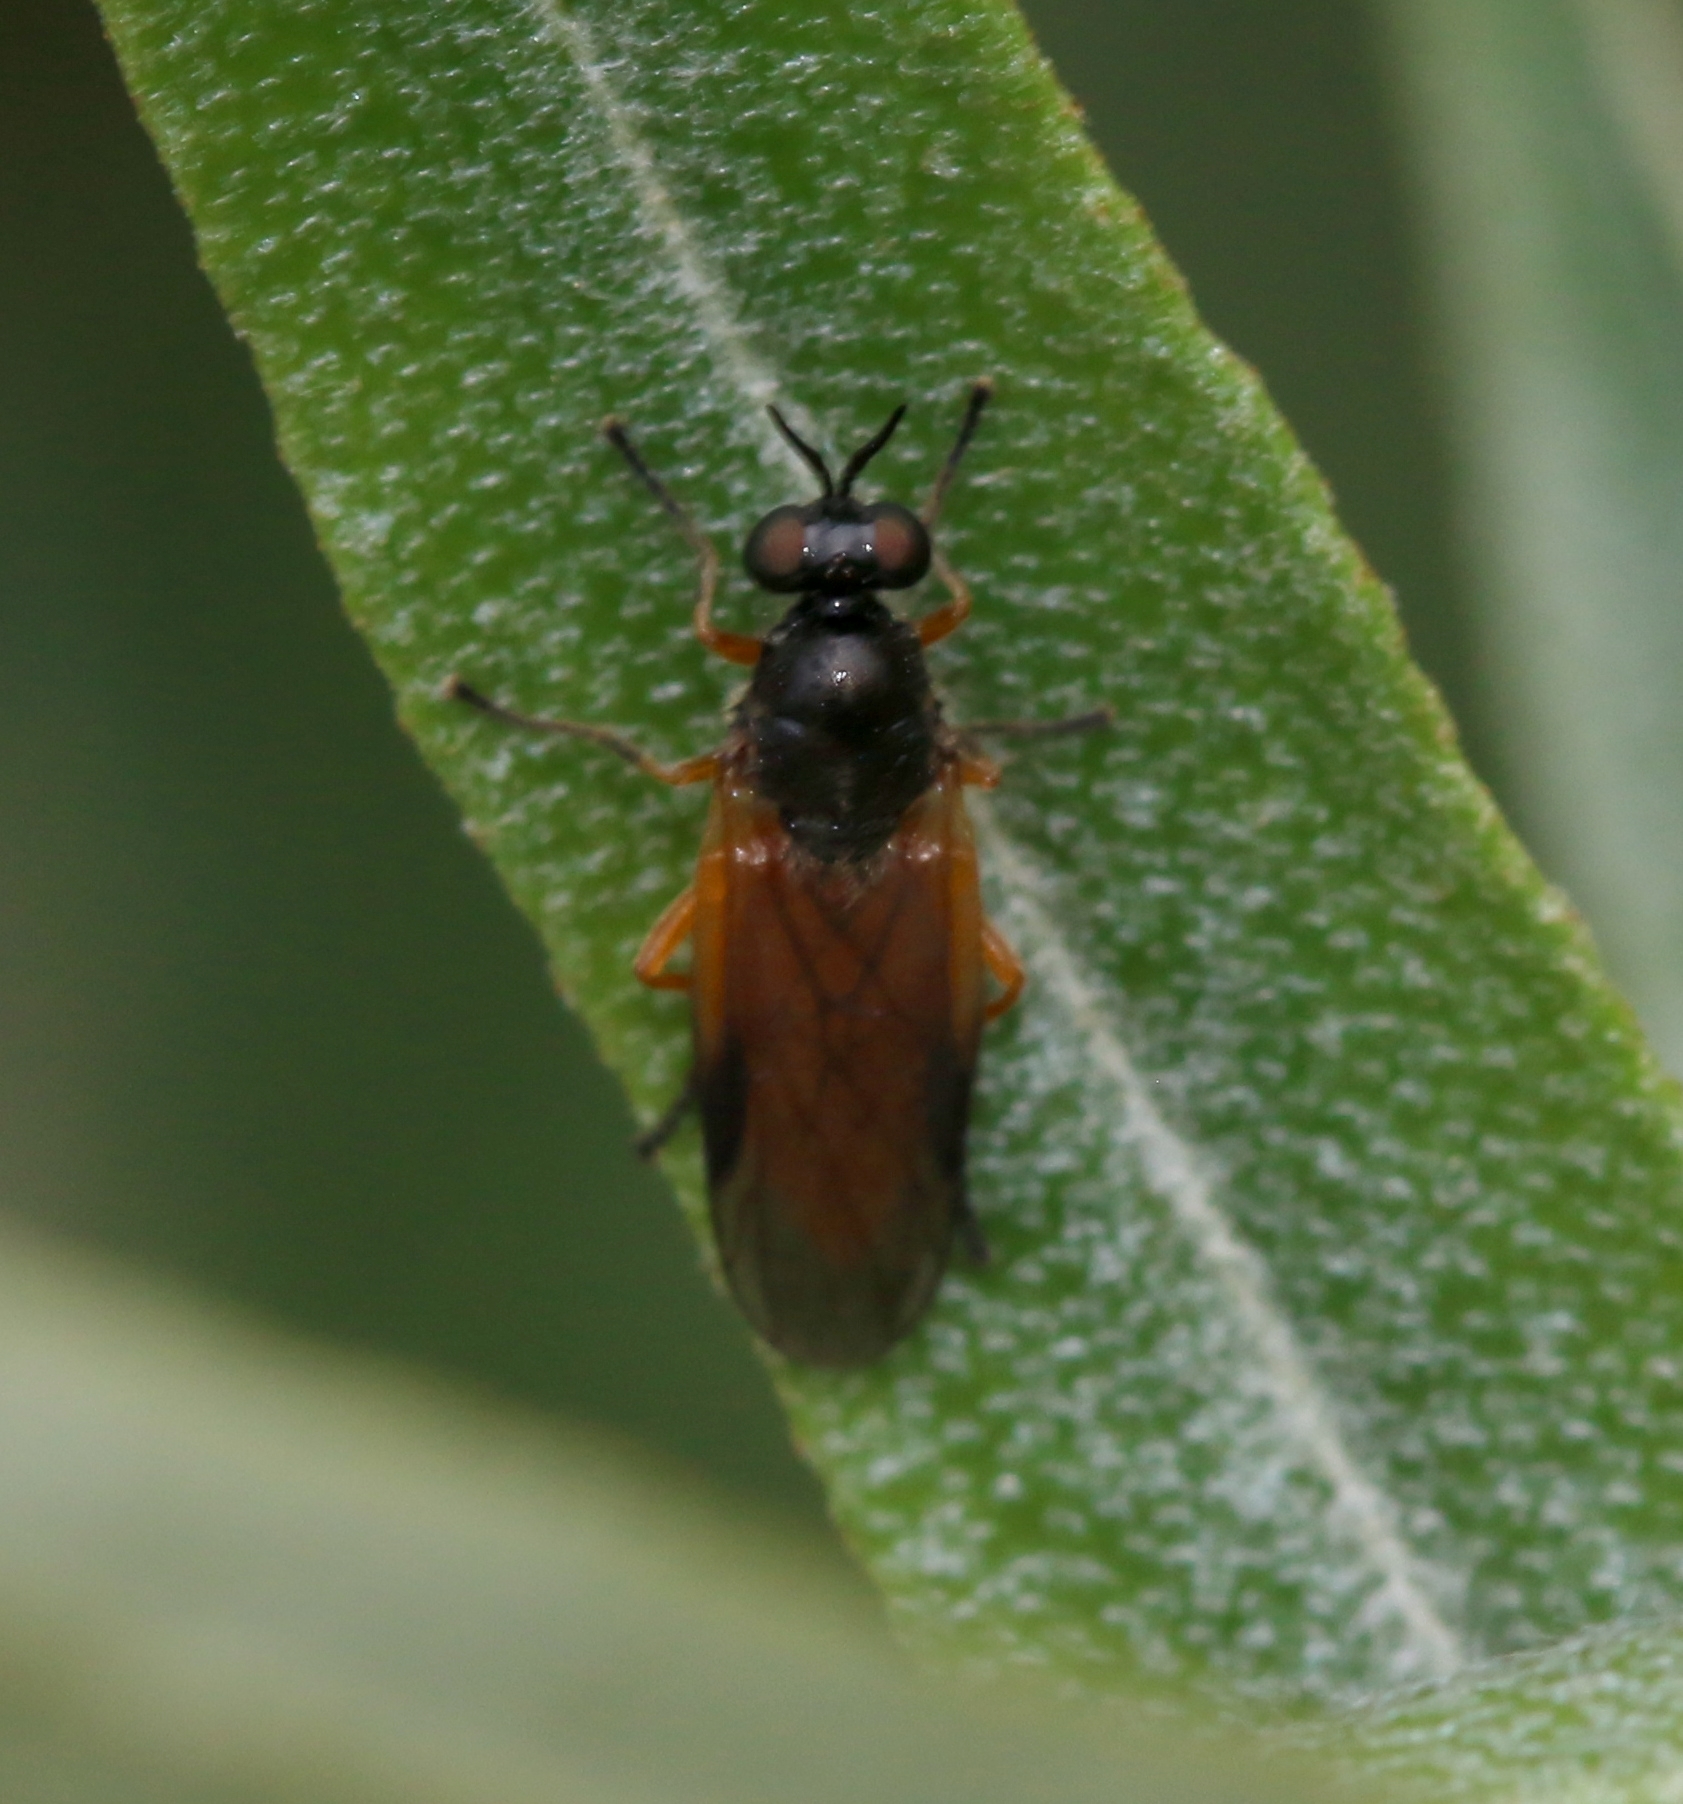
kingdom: Animalia
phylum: Arthropoda
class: Insecta
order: Diptera
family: Stratiomyidae
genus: Beris
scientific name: Beris vallata
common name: Common orange legionnaire
